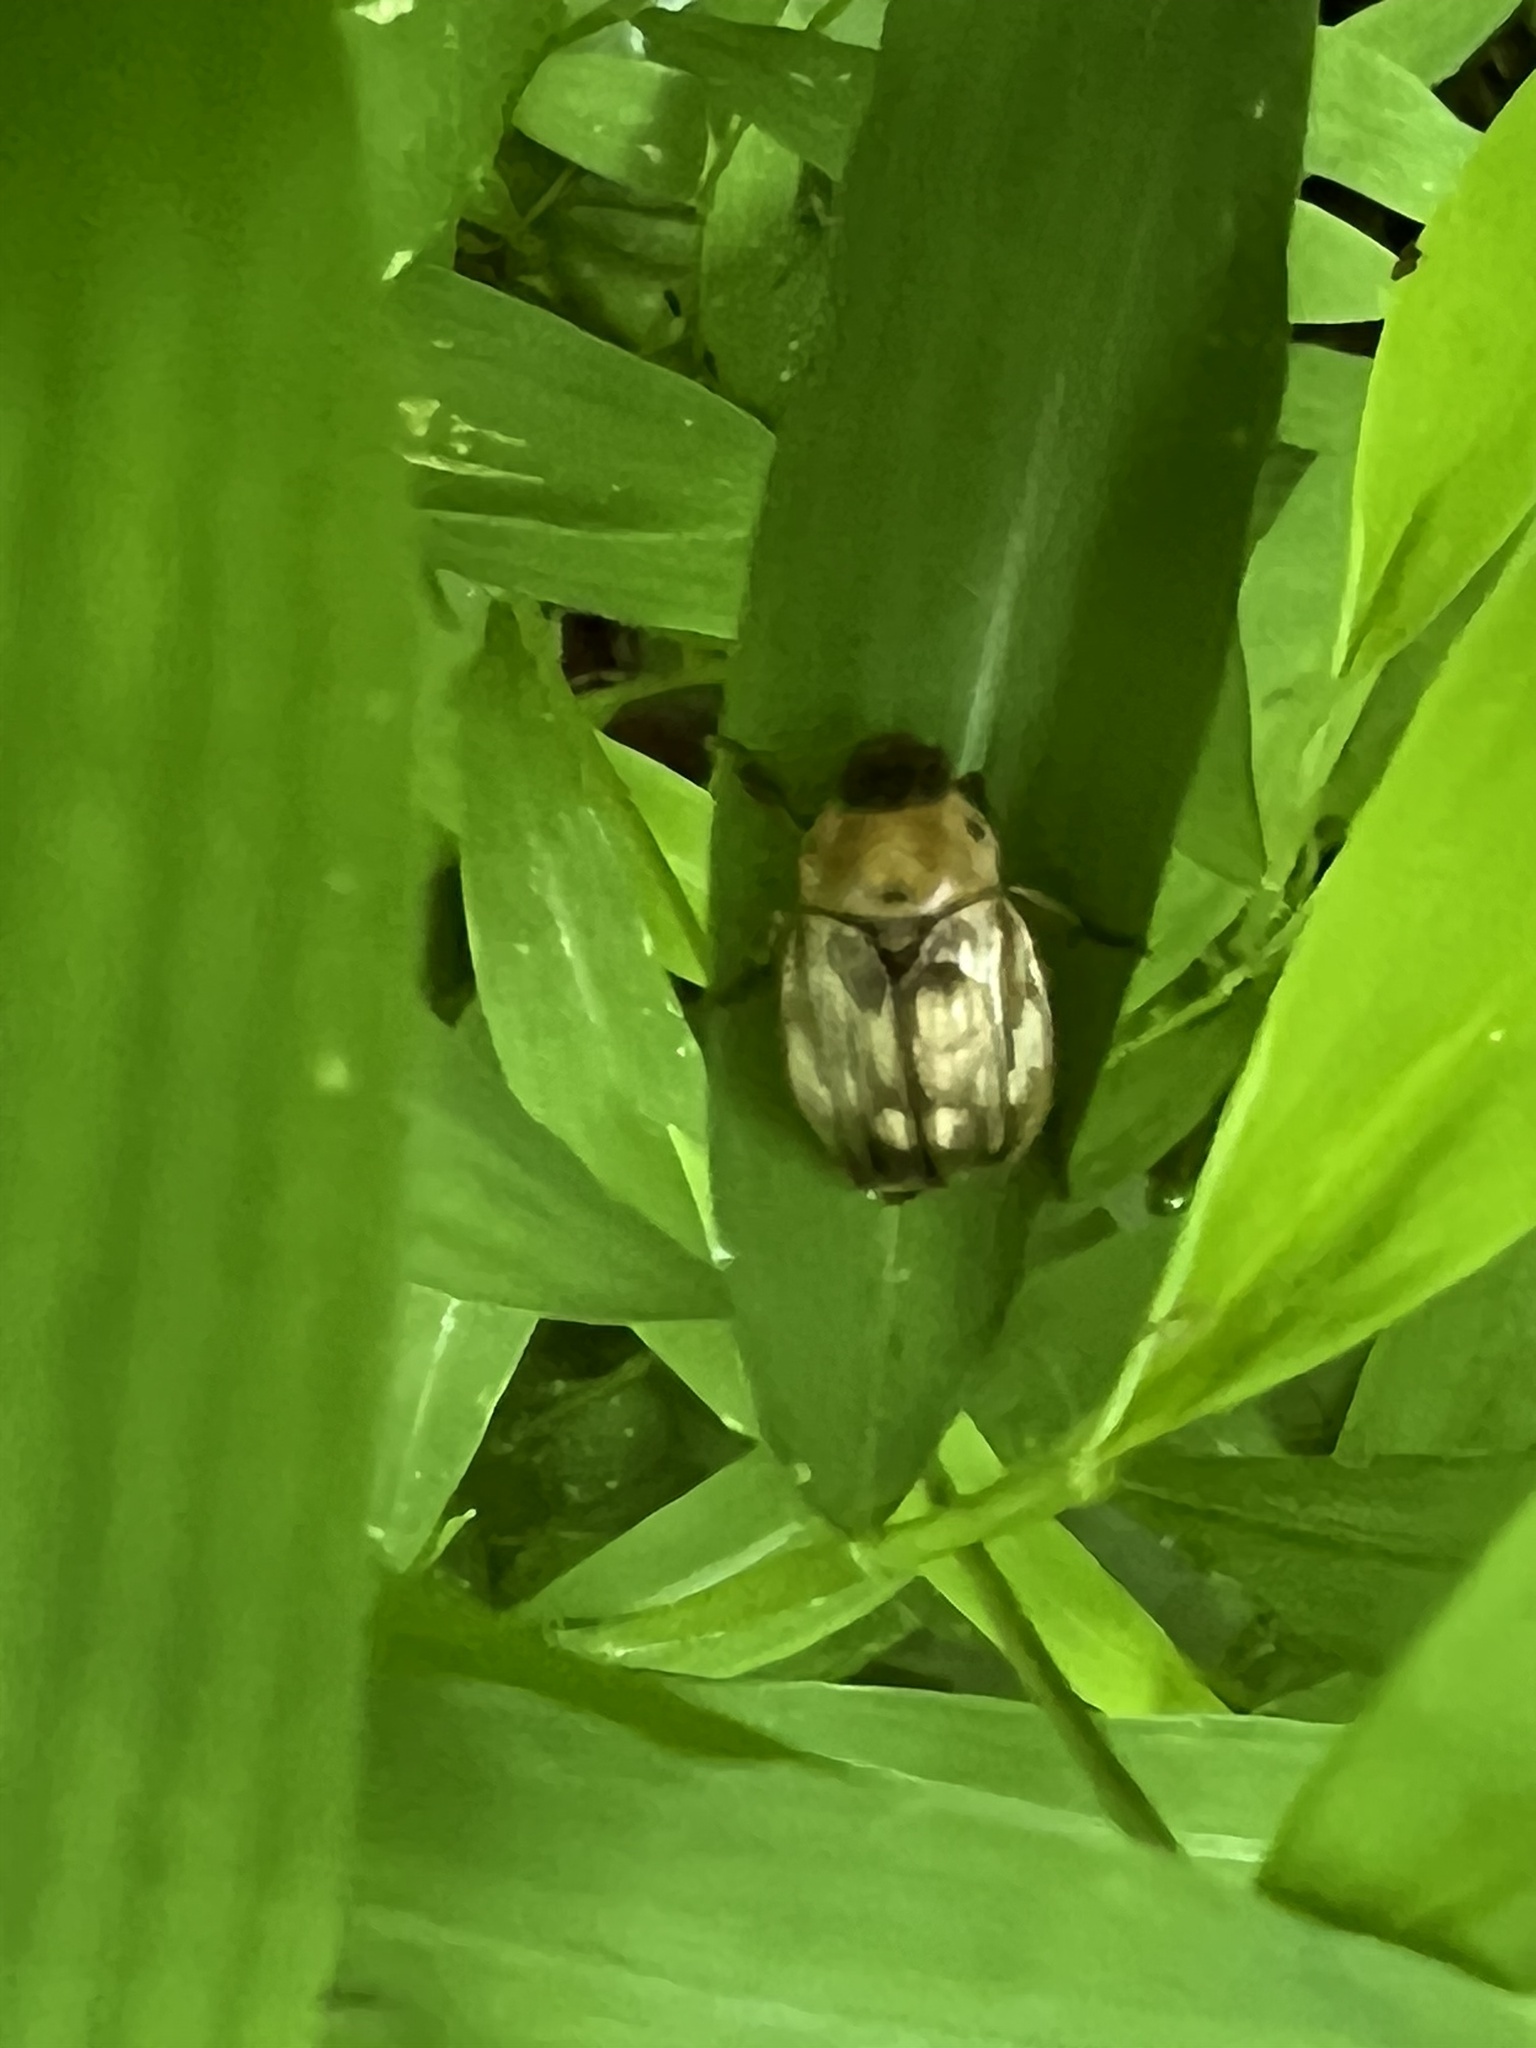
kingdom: Animalia
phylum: Arthropoda
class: Insecta
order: Coleoptera
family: Scarabaeidae
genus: Exomala
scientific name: Exomala orientalis
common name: Oriental beetle
